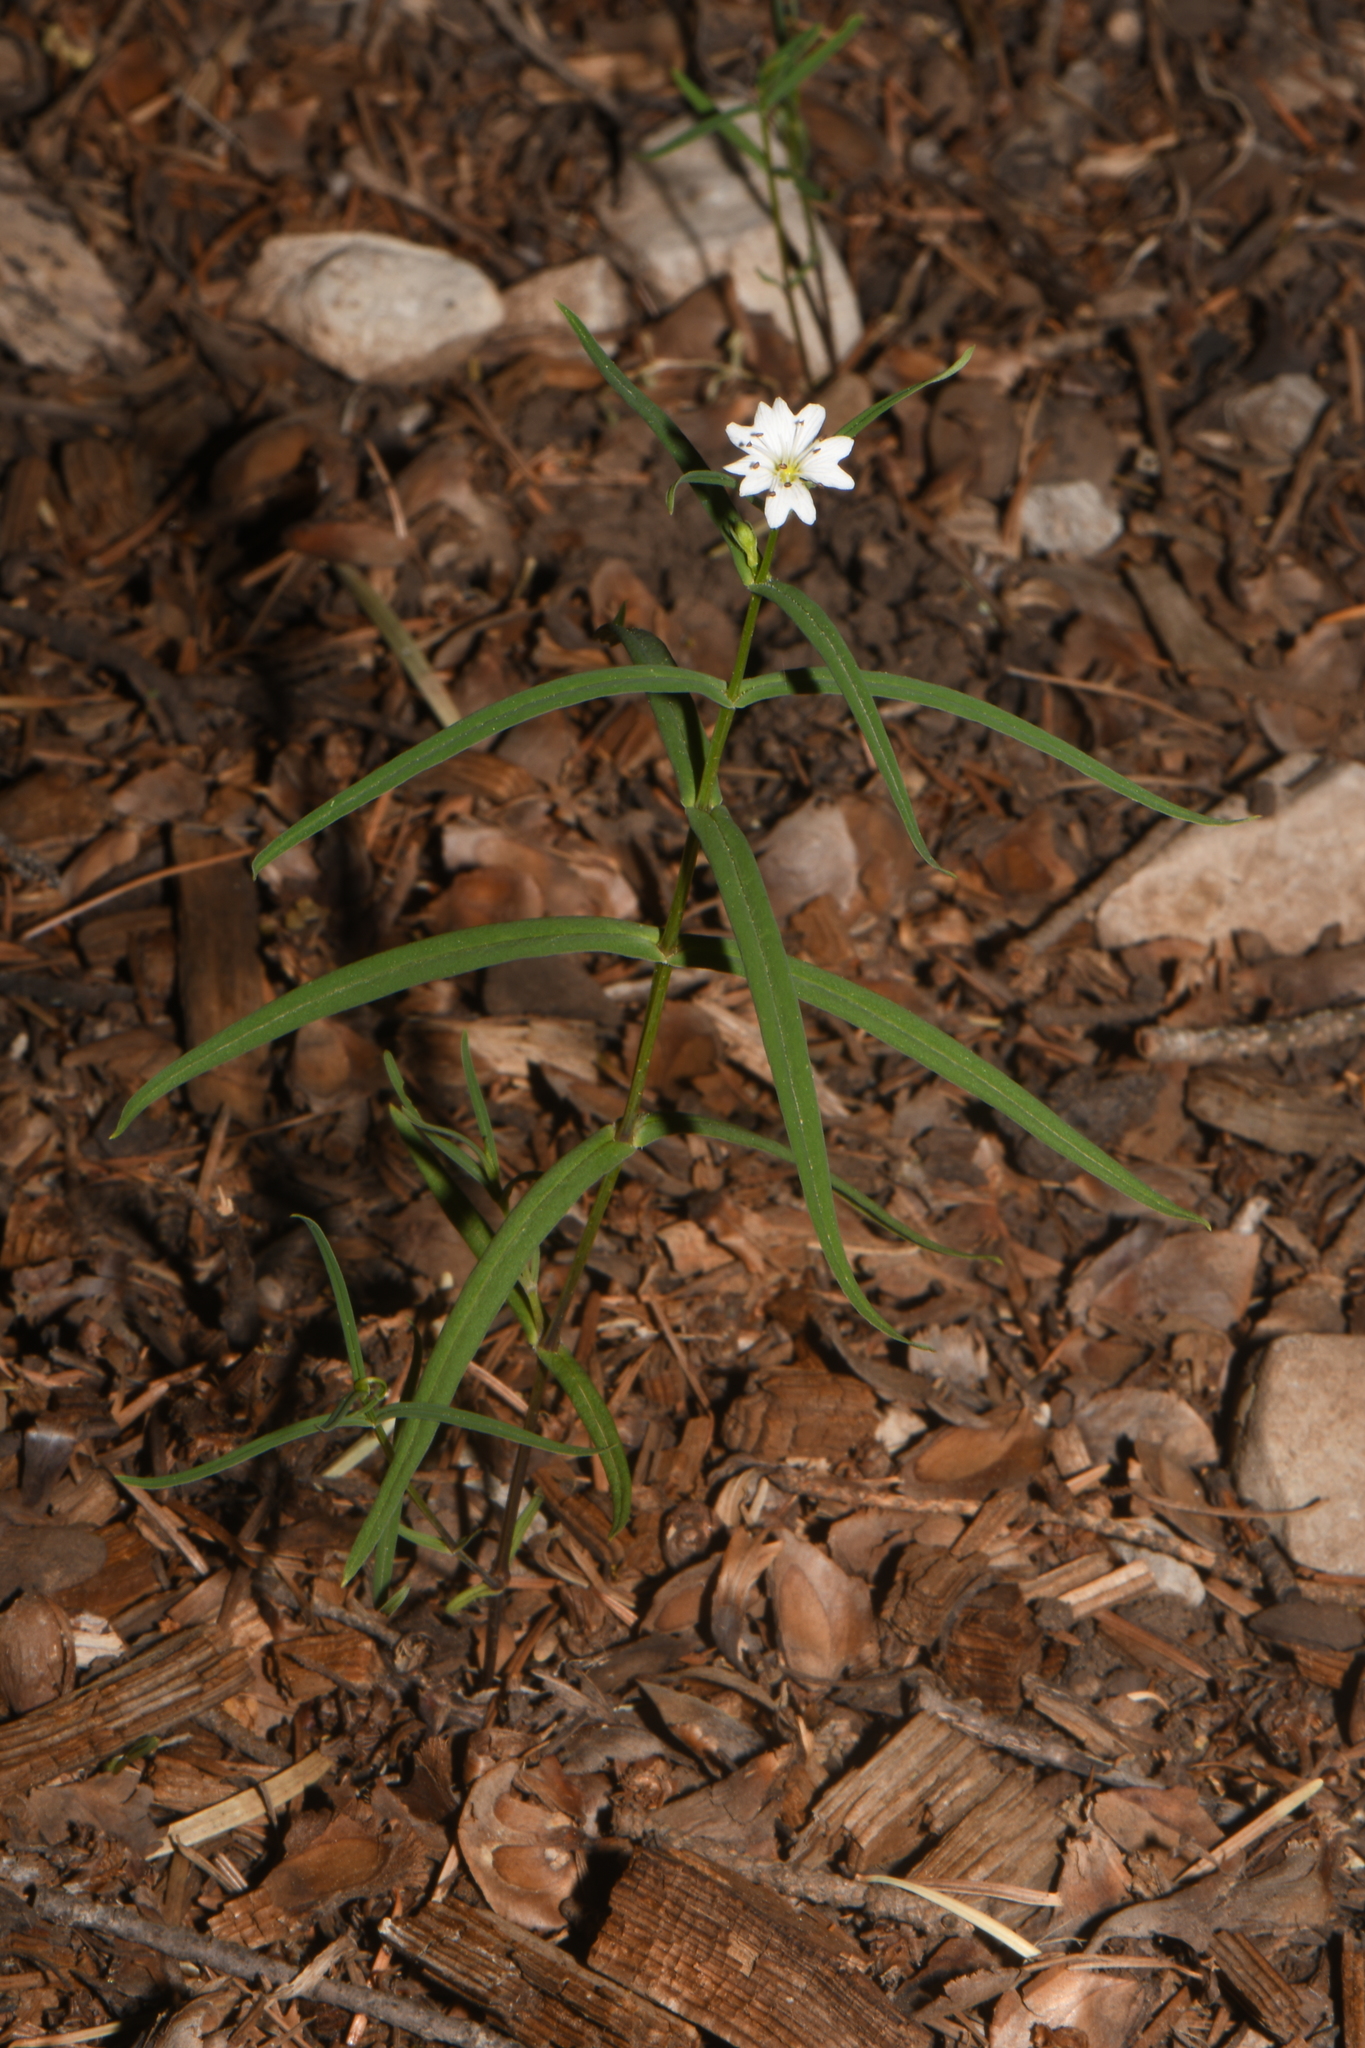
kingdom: Plantae
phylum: Tracheophyta
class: Magnoliopsida
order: Caryophyllales
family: Caryophyllaceae
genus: Schizotechium
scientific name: Schizotechium jamesianum
